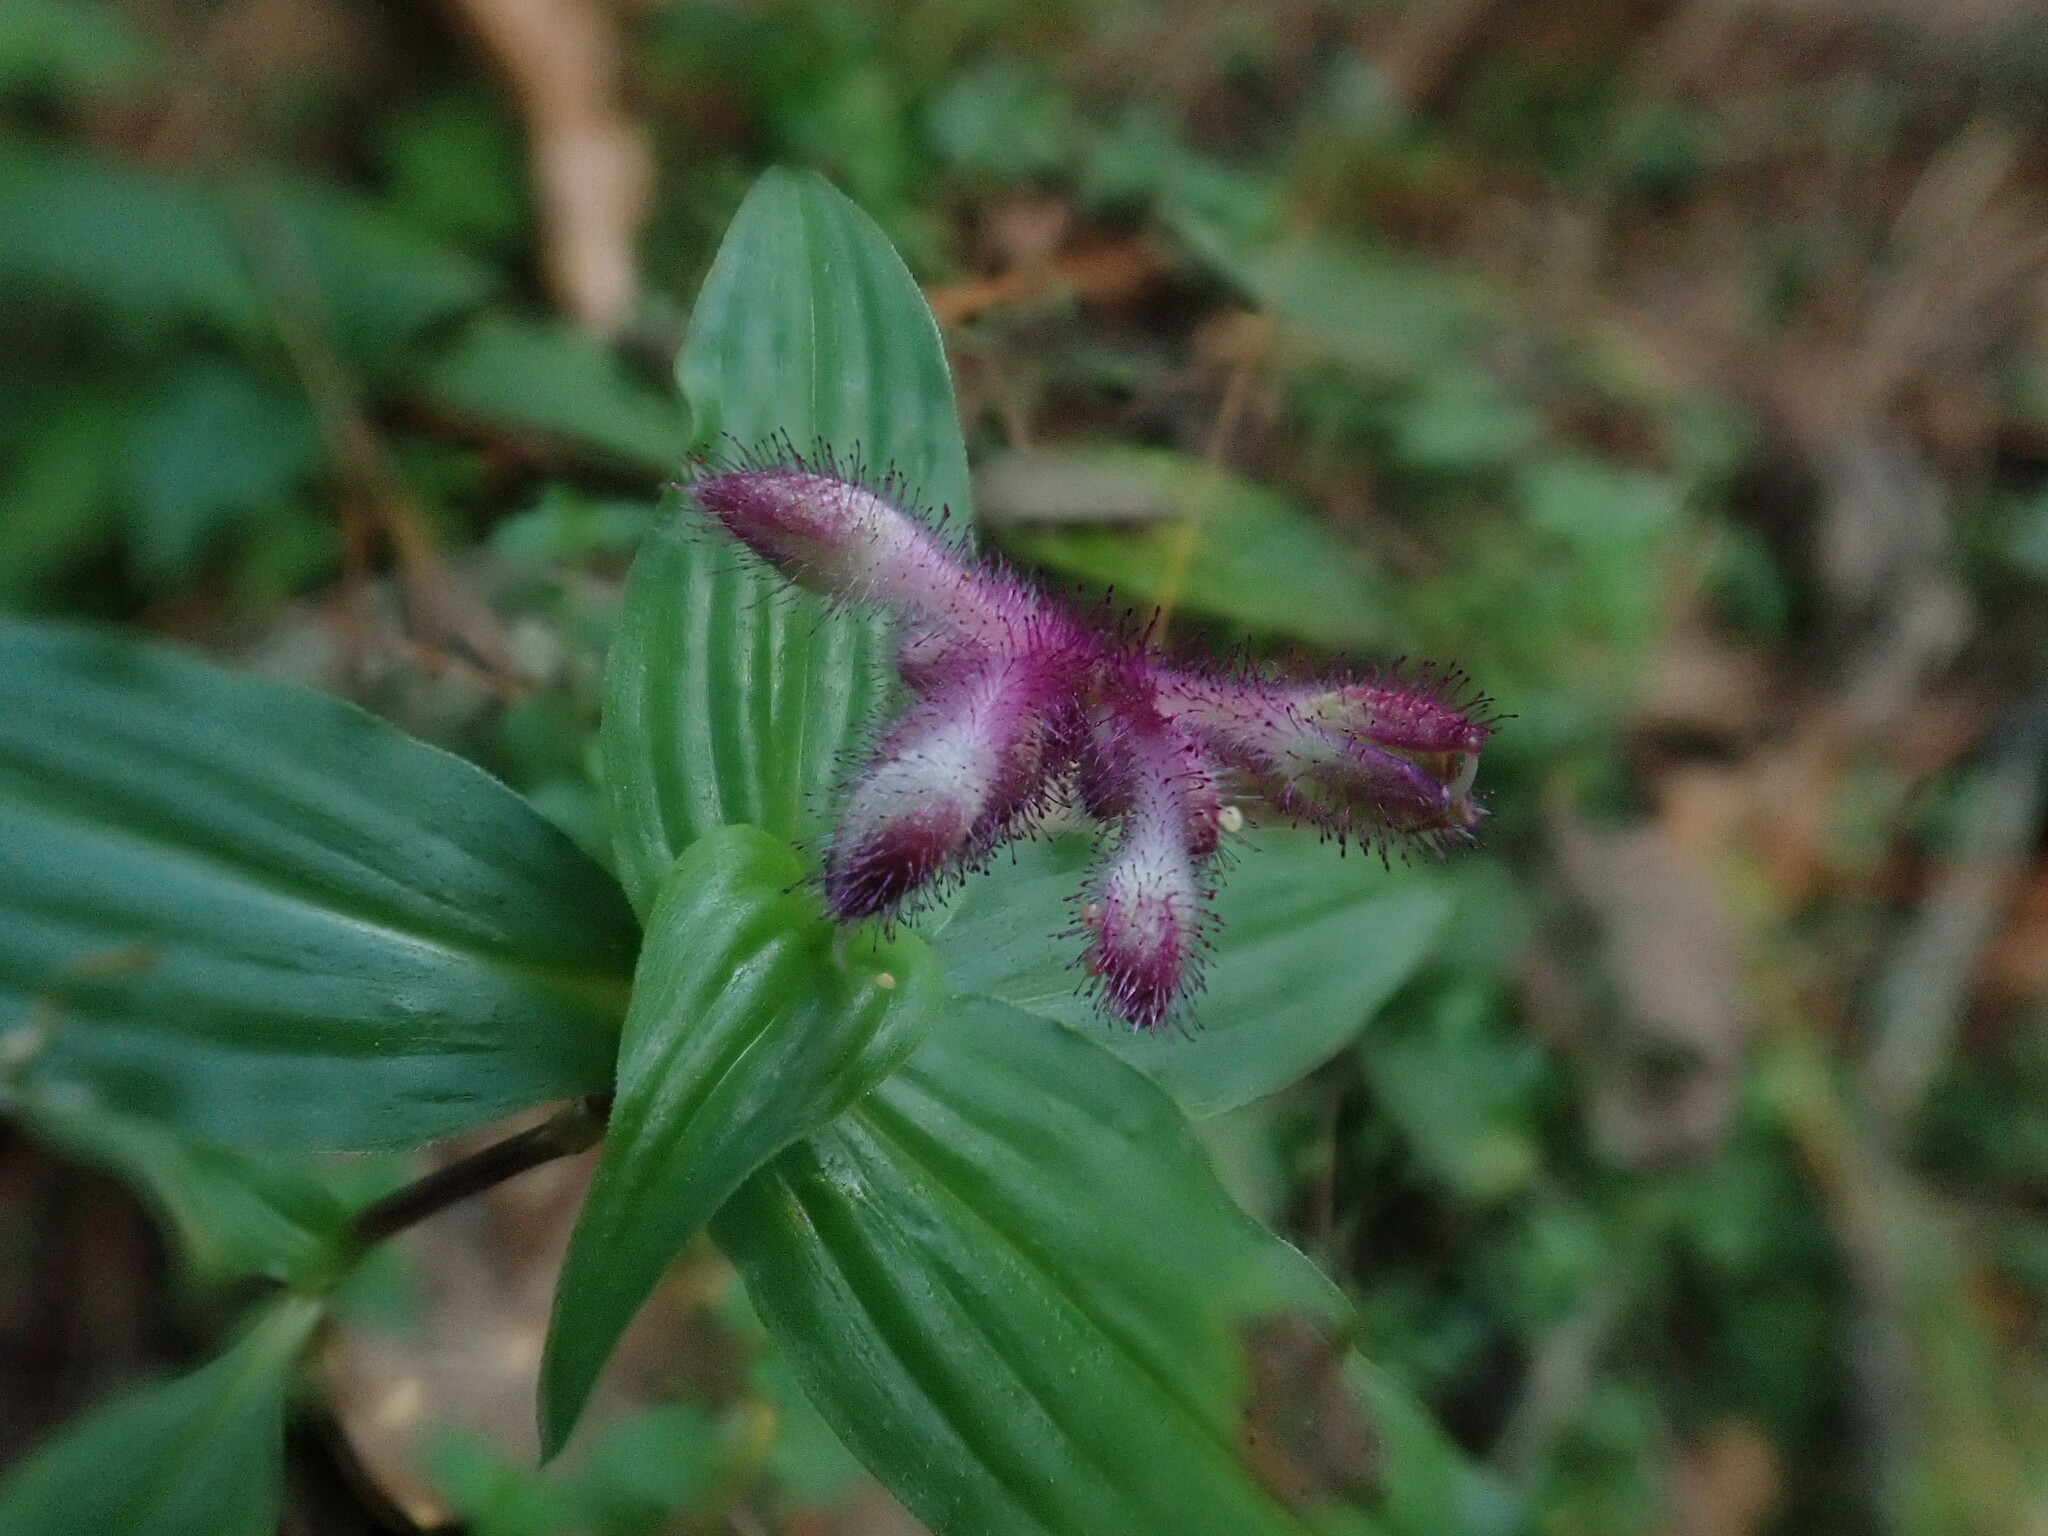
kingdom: Plantae
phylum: Tracheophyta
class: Liliopsida
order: Commelinales
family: Commelinaceae
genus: Tinantia
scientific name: Tinantia violacea
